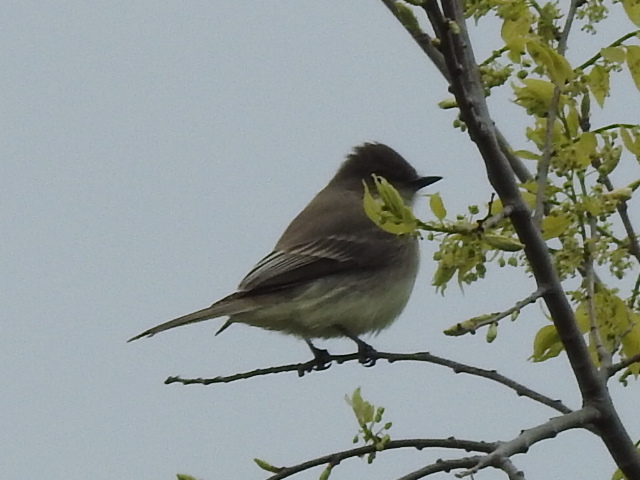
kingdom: Animalia
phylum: Chordata
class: Aves
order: Passeriformes
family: Tyrannidae
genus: Sayornis
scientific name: Sayornis phoebe
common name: Eastern phoebe
